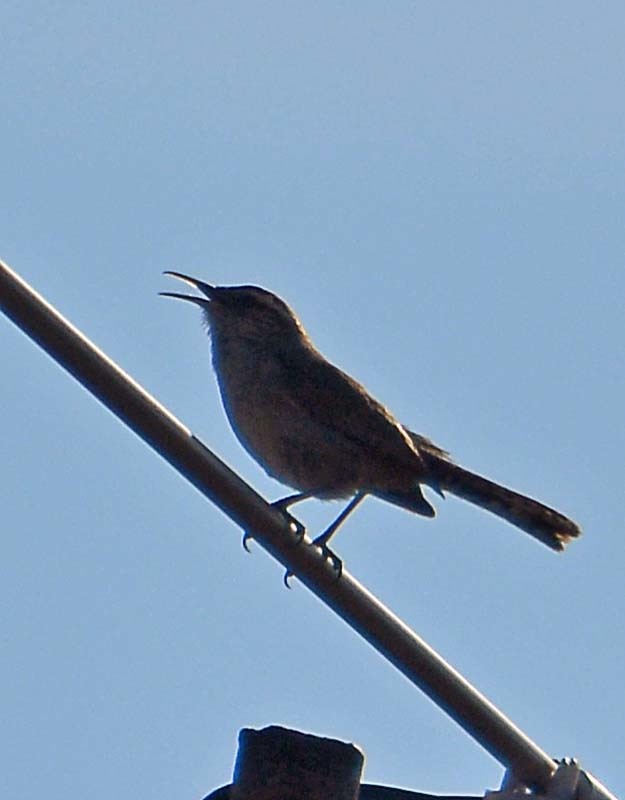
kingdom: Animalia
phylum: Chordata
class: Aves
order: Passeriformes
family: Troglodytidae
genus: Thryomanes
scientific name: Thryomanes bewickii
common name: Bewick's wren
